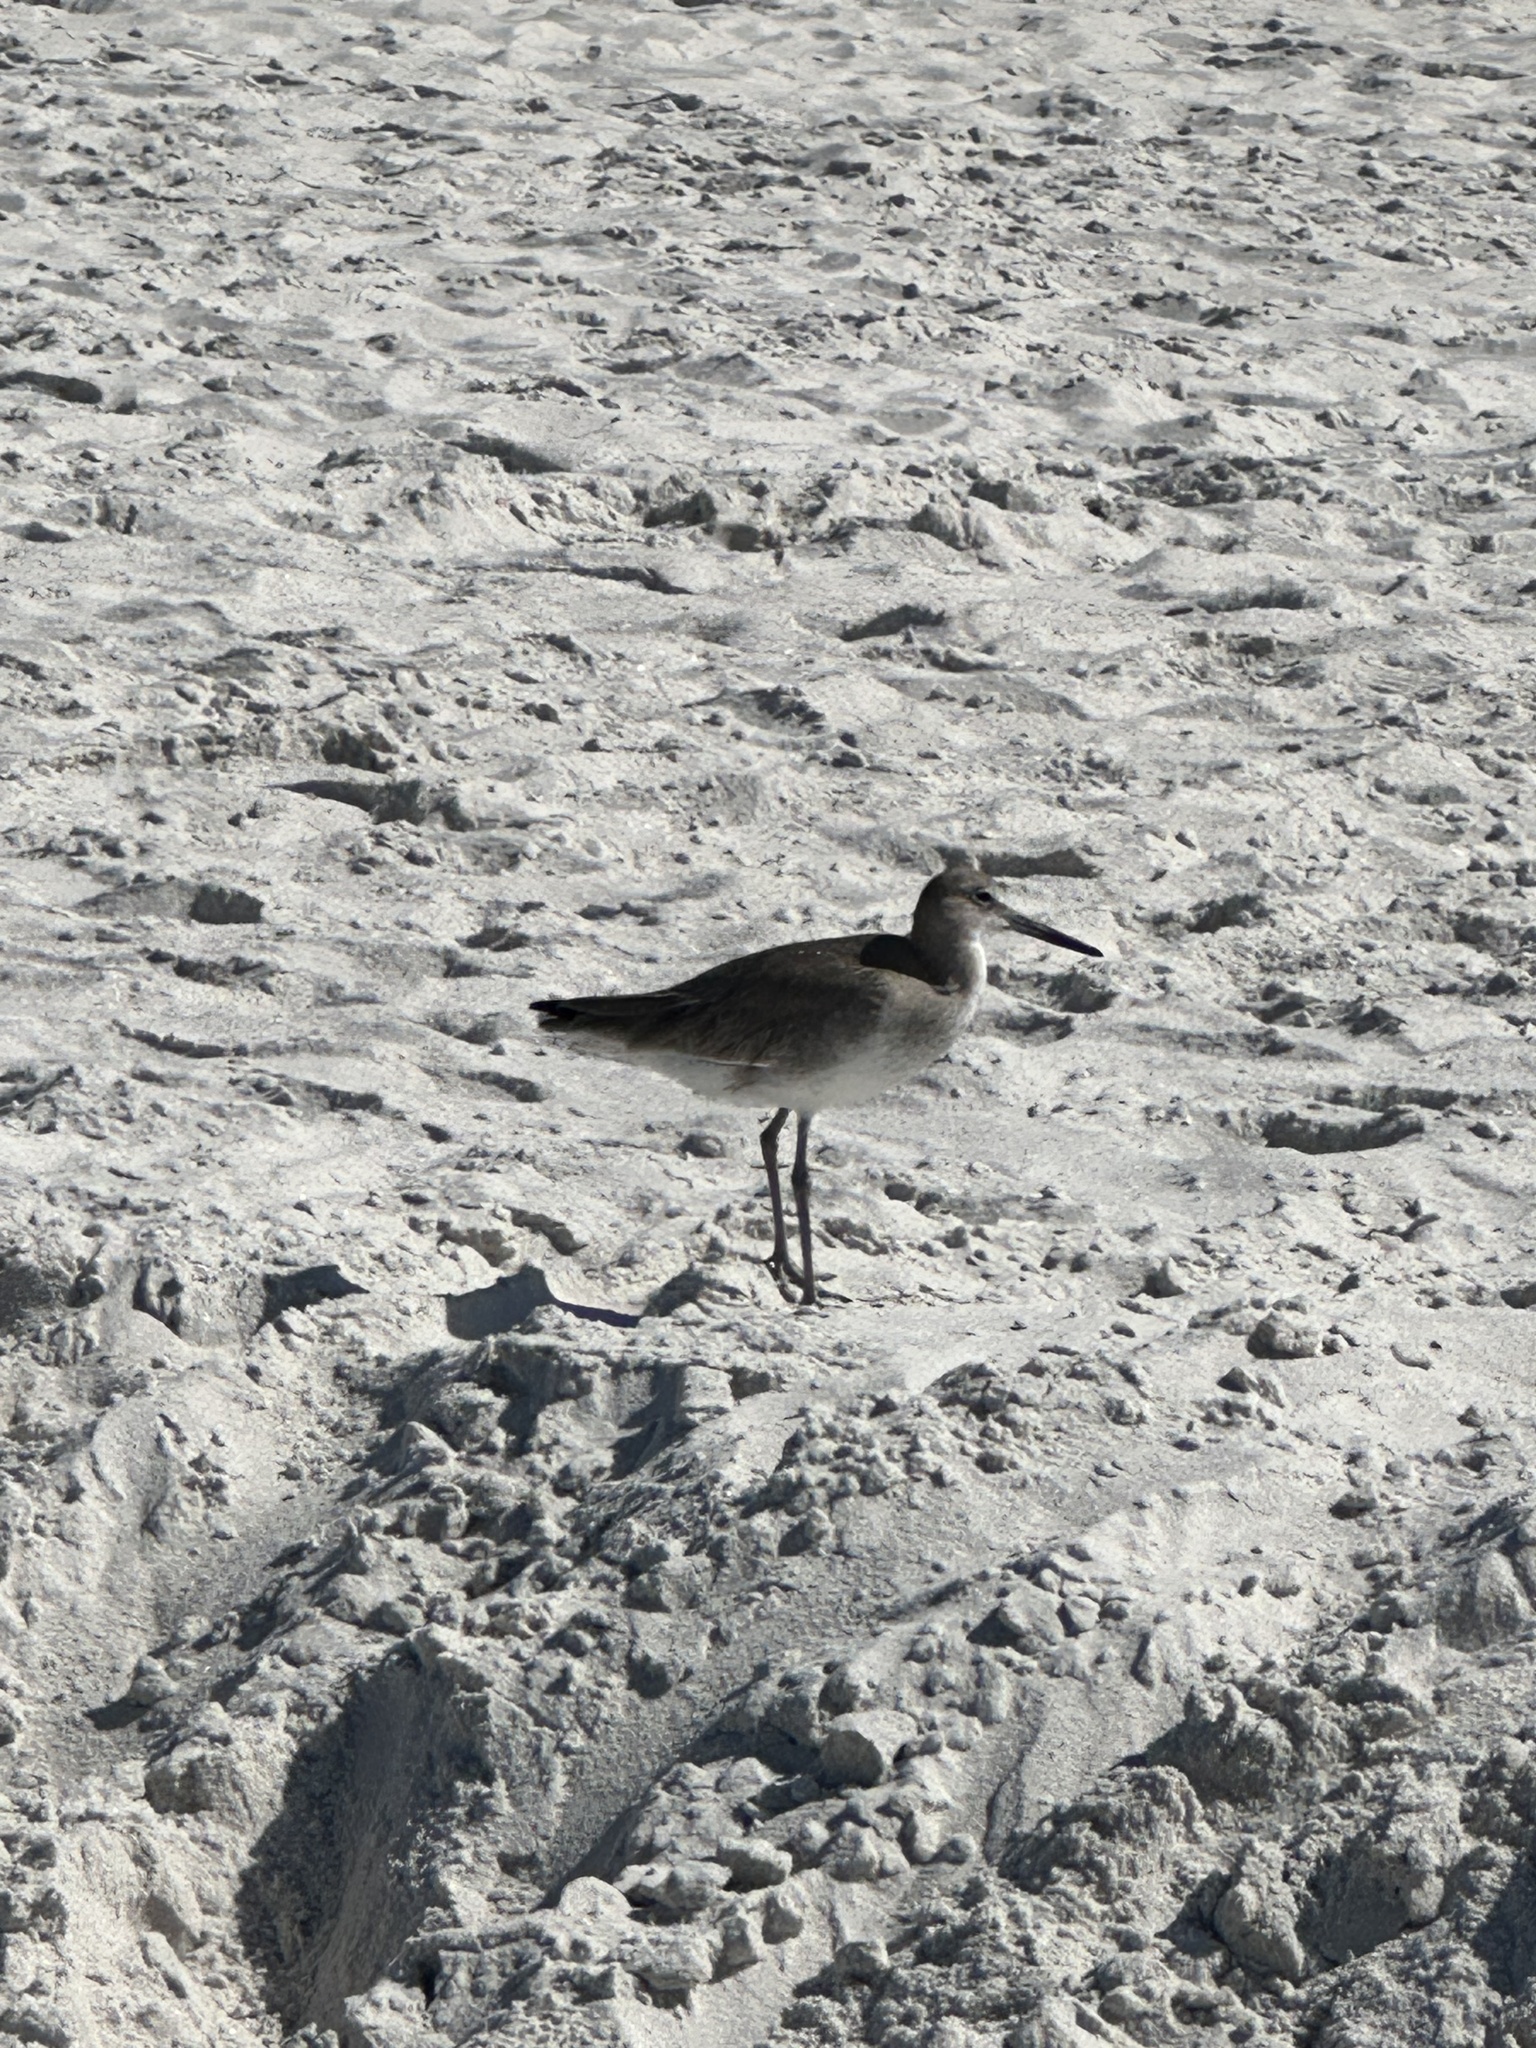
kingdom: Animalia
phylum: Chordata
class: Aves
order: Charadriiformes
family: Scolopacidae
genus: Tringa
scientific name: Tringa semipalmata
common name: Willet
